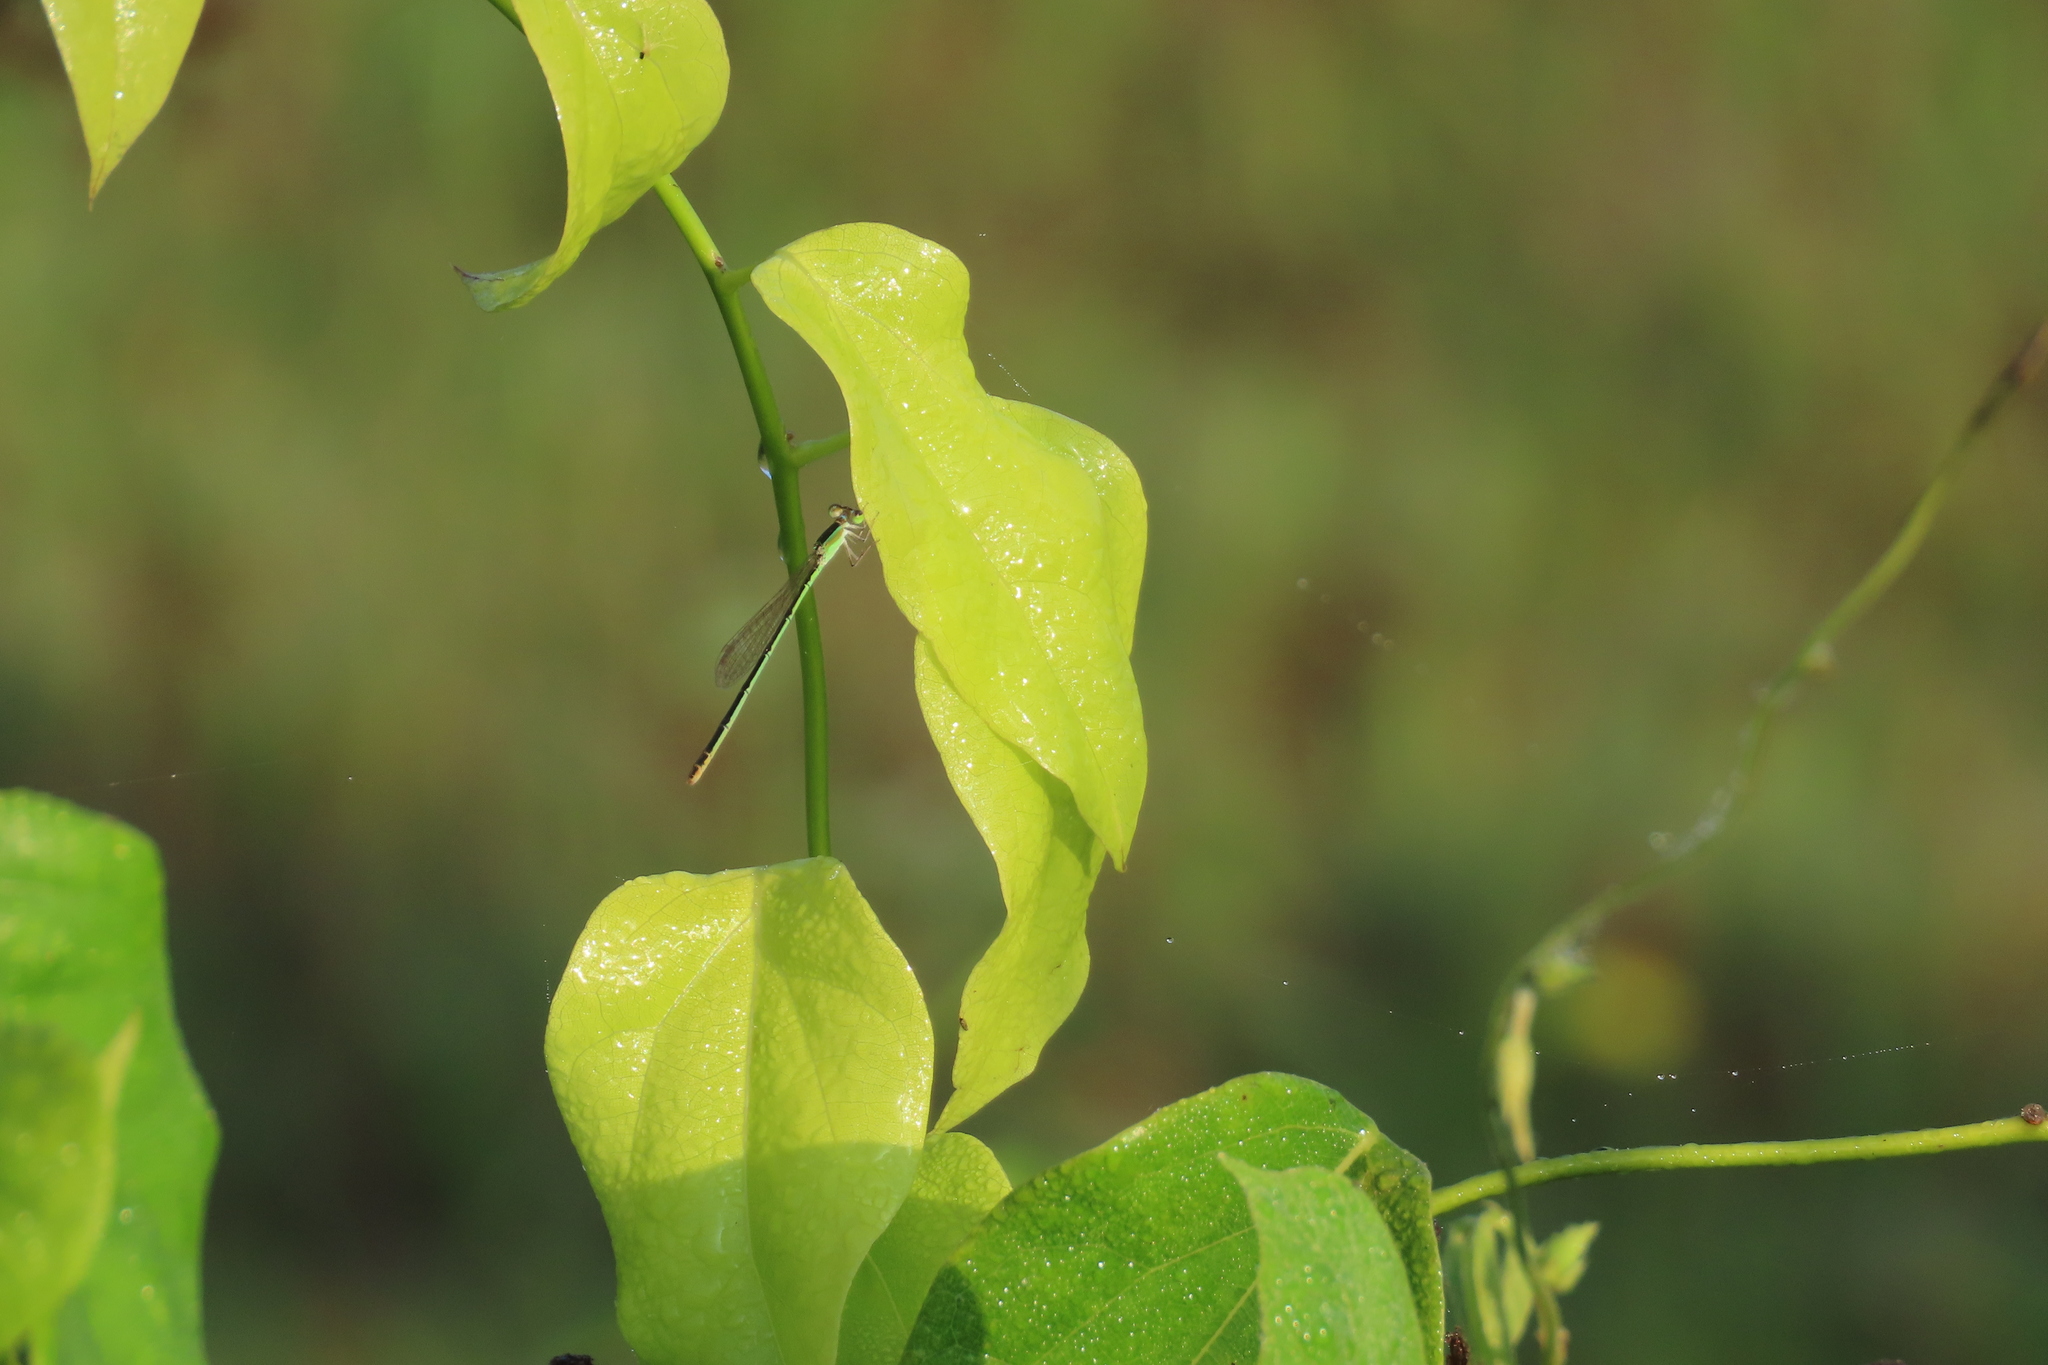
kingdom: Animalia
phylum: Arthropoda
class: Insecta
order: Odonata
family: Coenagrionidae
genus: Agriocnemis
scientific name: Agriocnemis pygmaea
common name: Pygmy wisp
